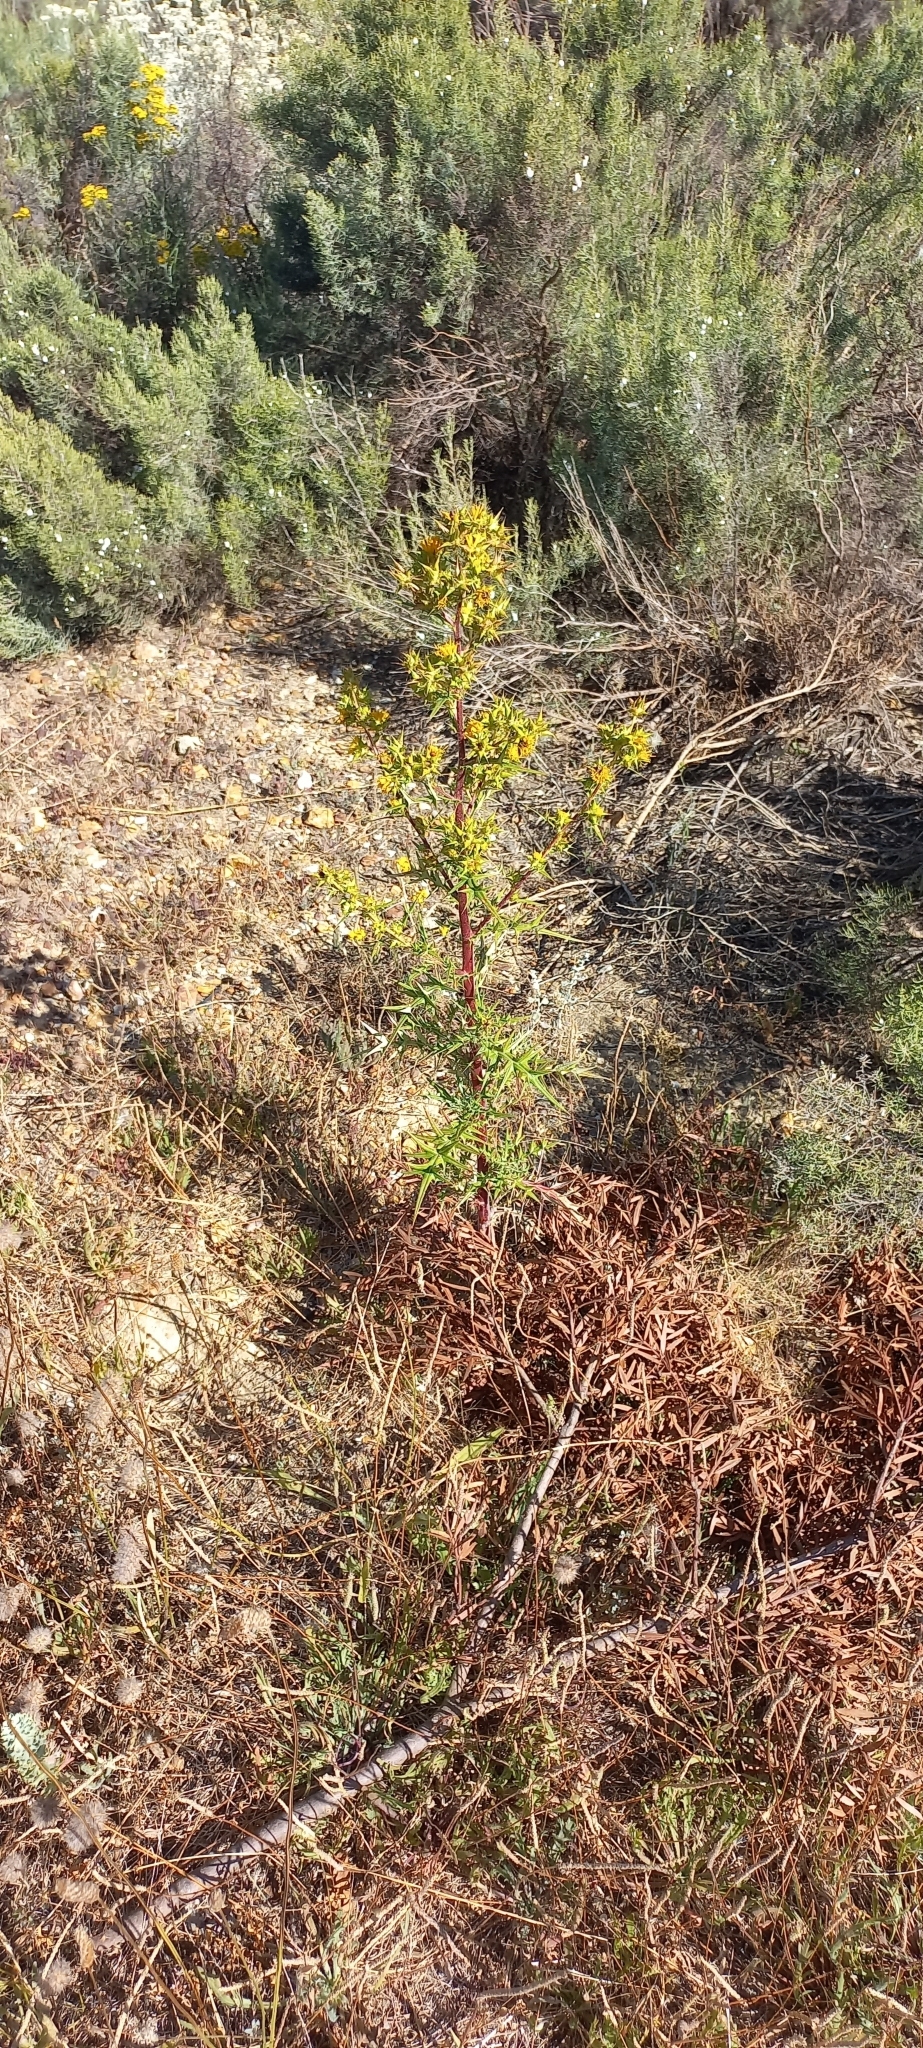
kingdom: Plantae
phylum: Tracheophyta
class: Magnoliopsida
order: Asterales
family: Asteraceae
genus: Berkheya
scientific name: Berkheya rigida
